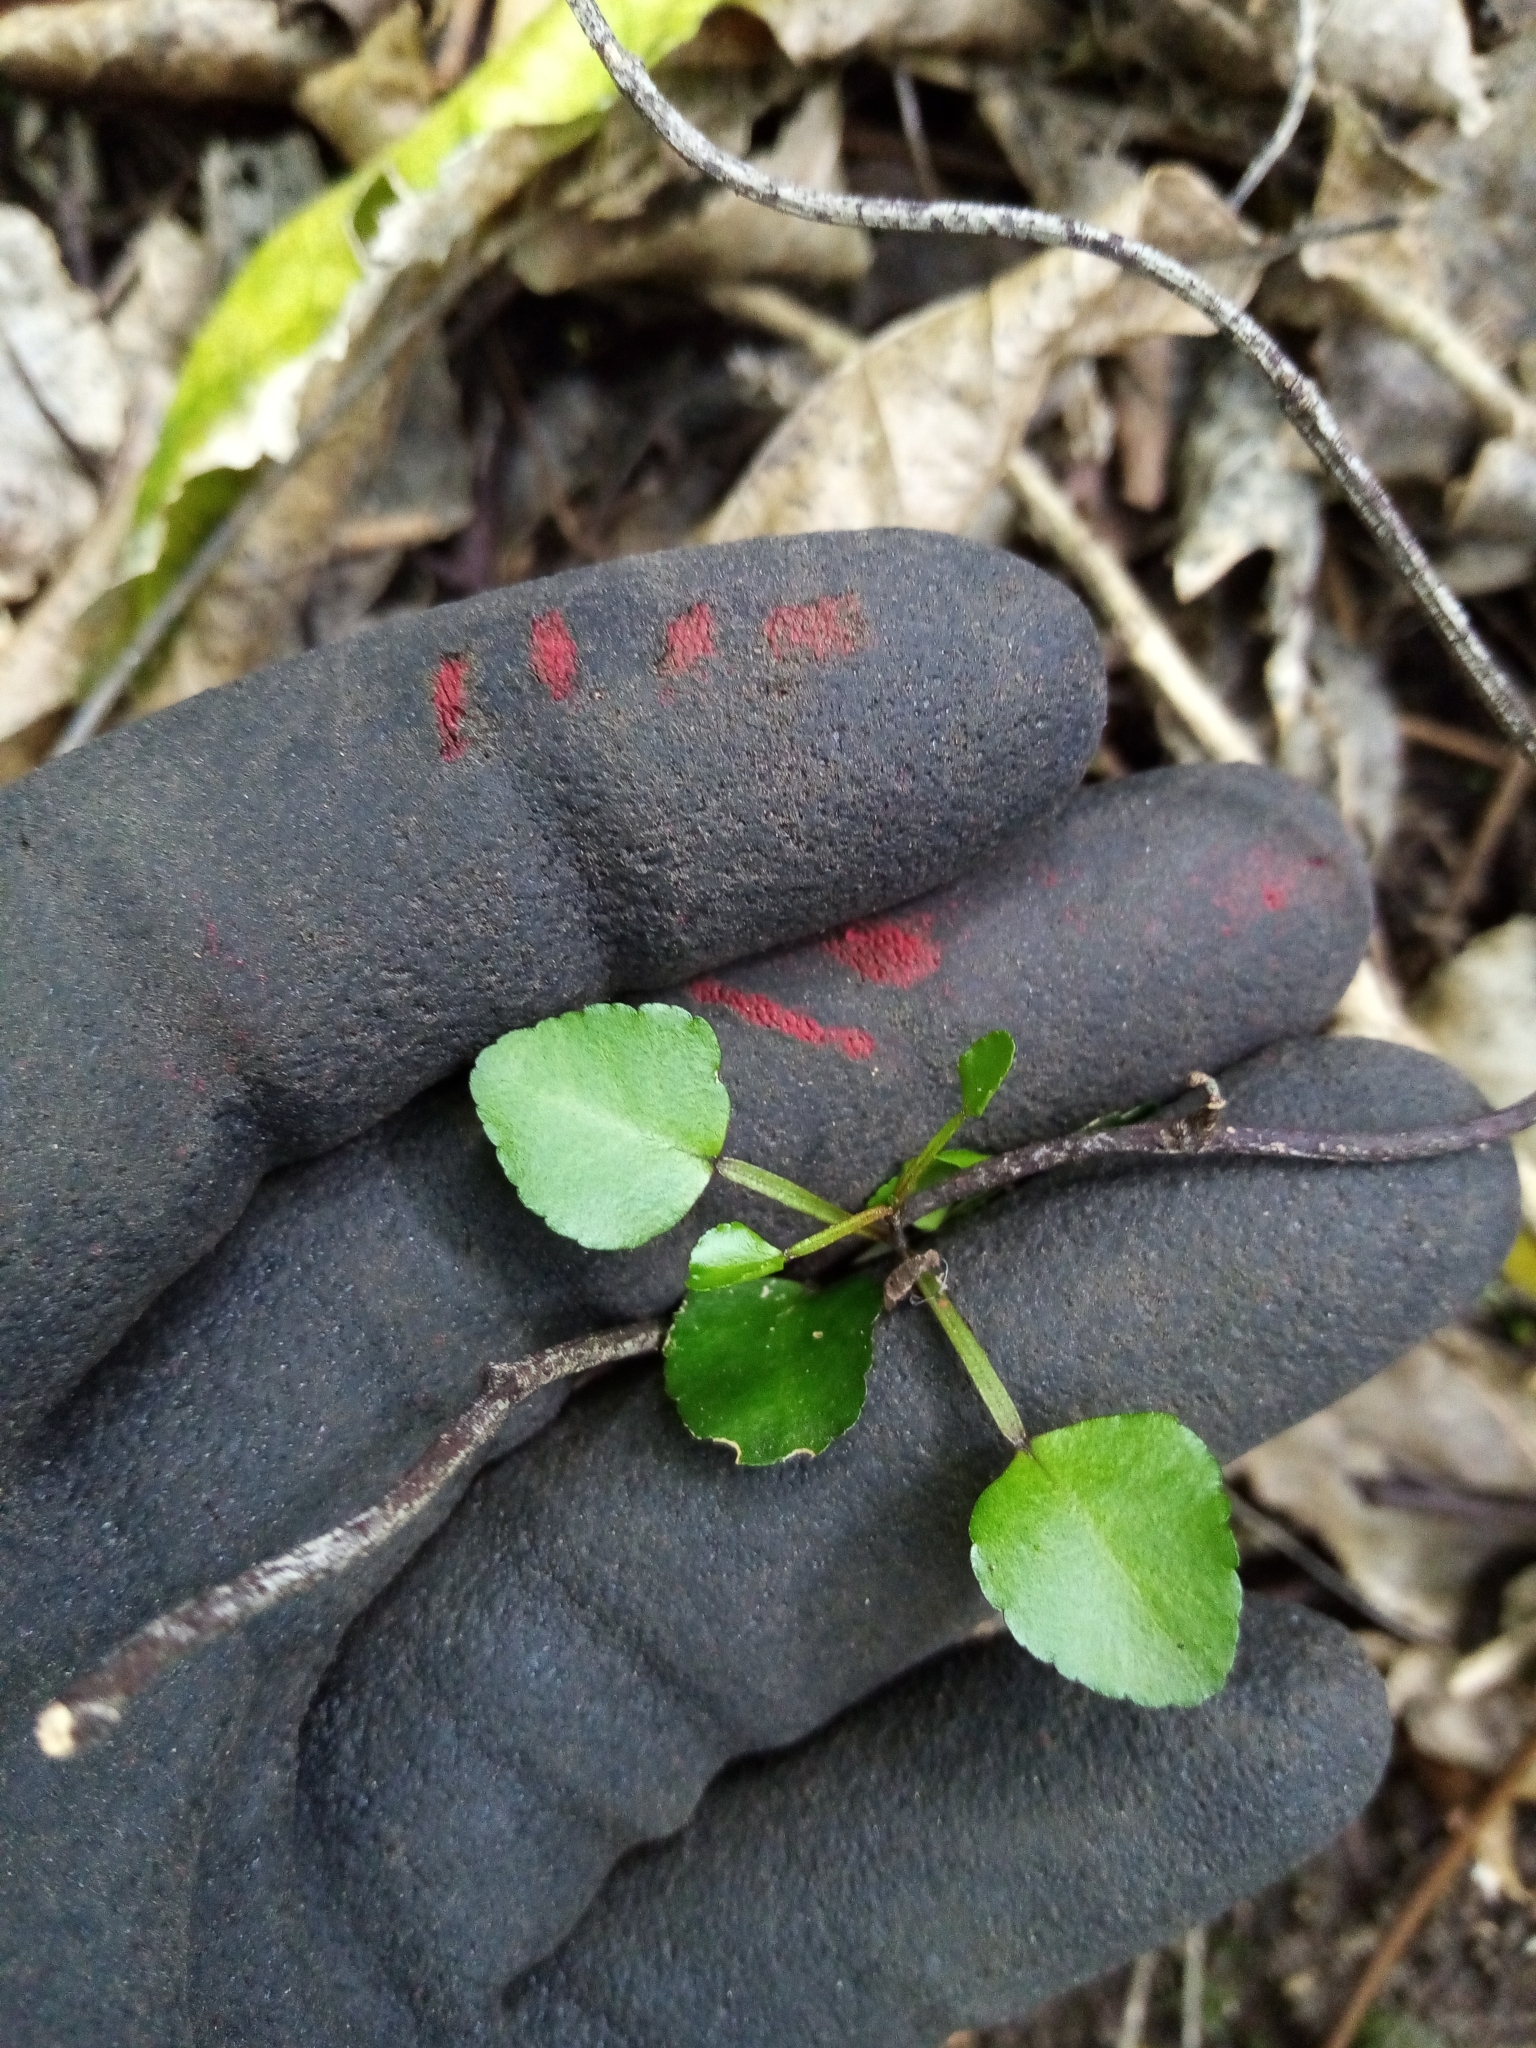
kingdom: Plantae
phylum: Tracheophyta
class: Magnoliopsida
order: Sapindales
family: Rutaceae
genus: Melicope
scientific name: Melicope simplex
